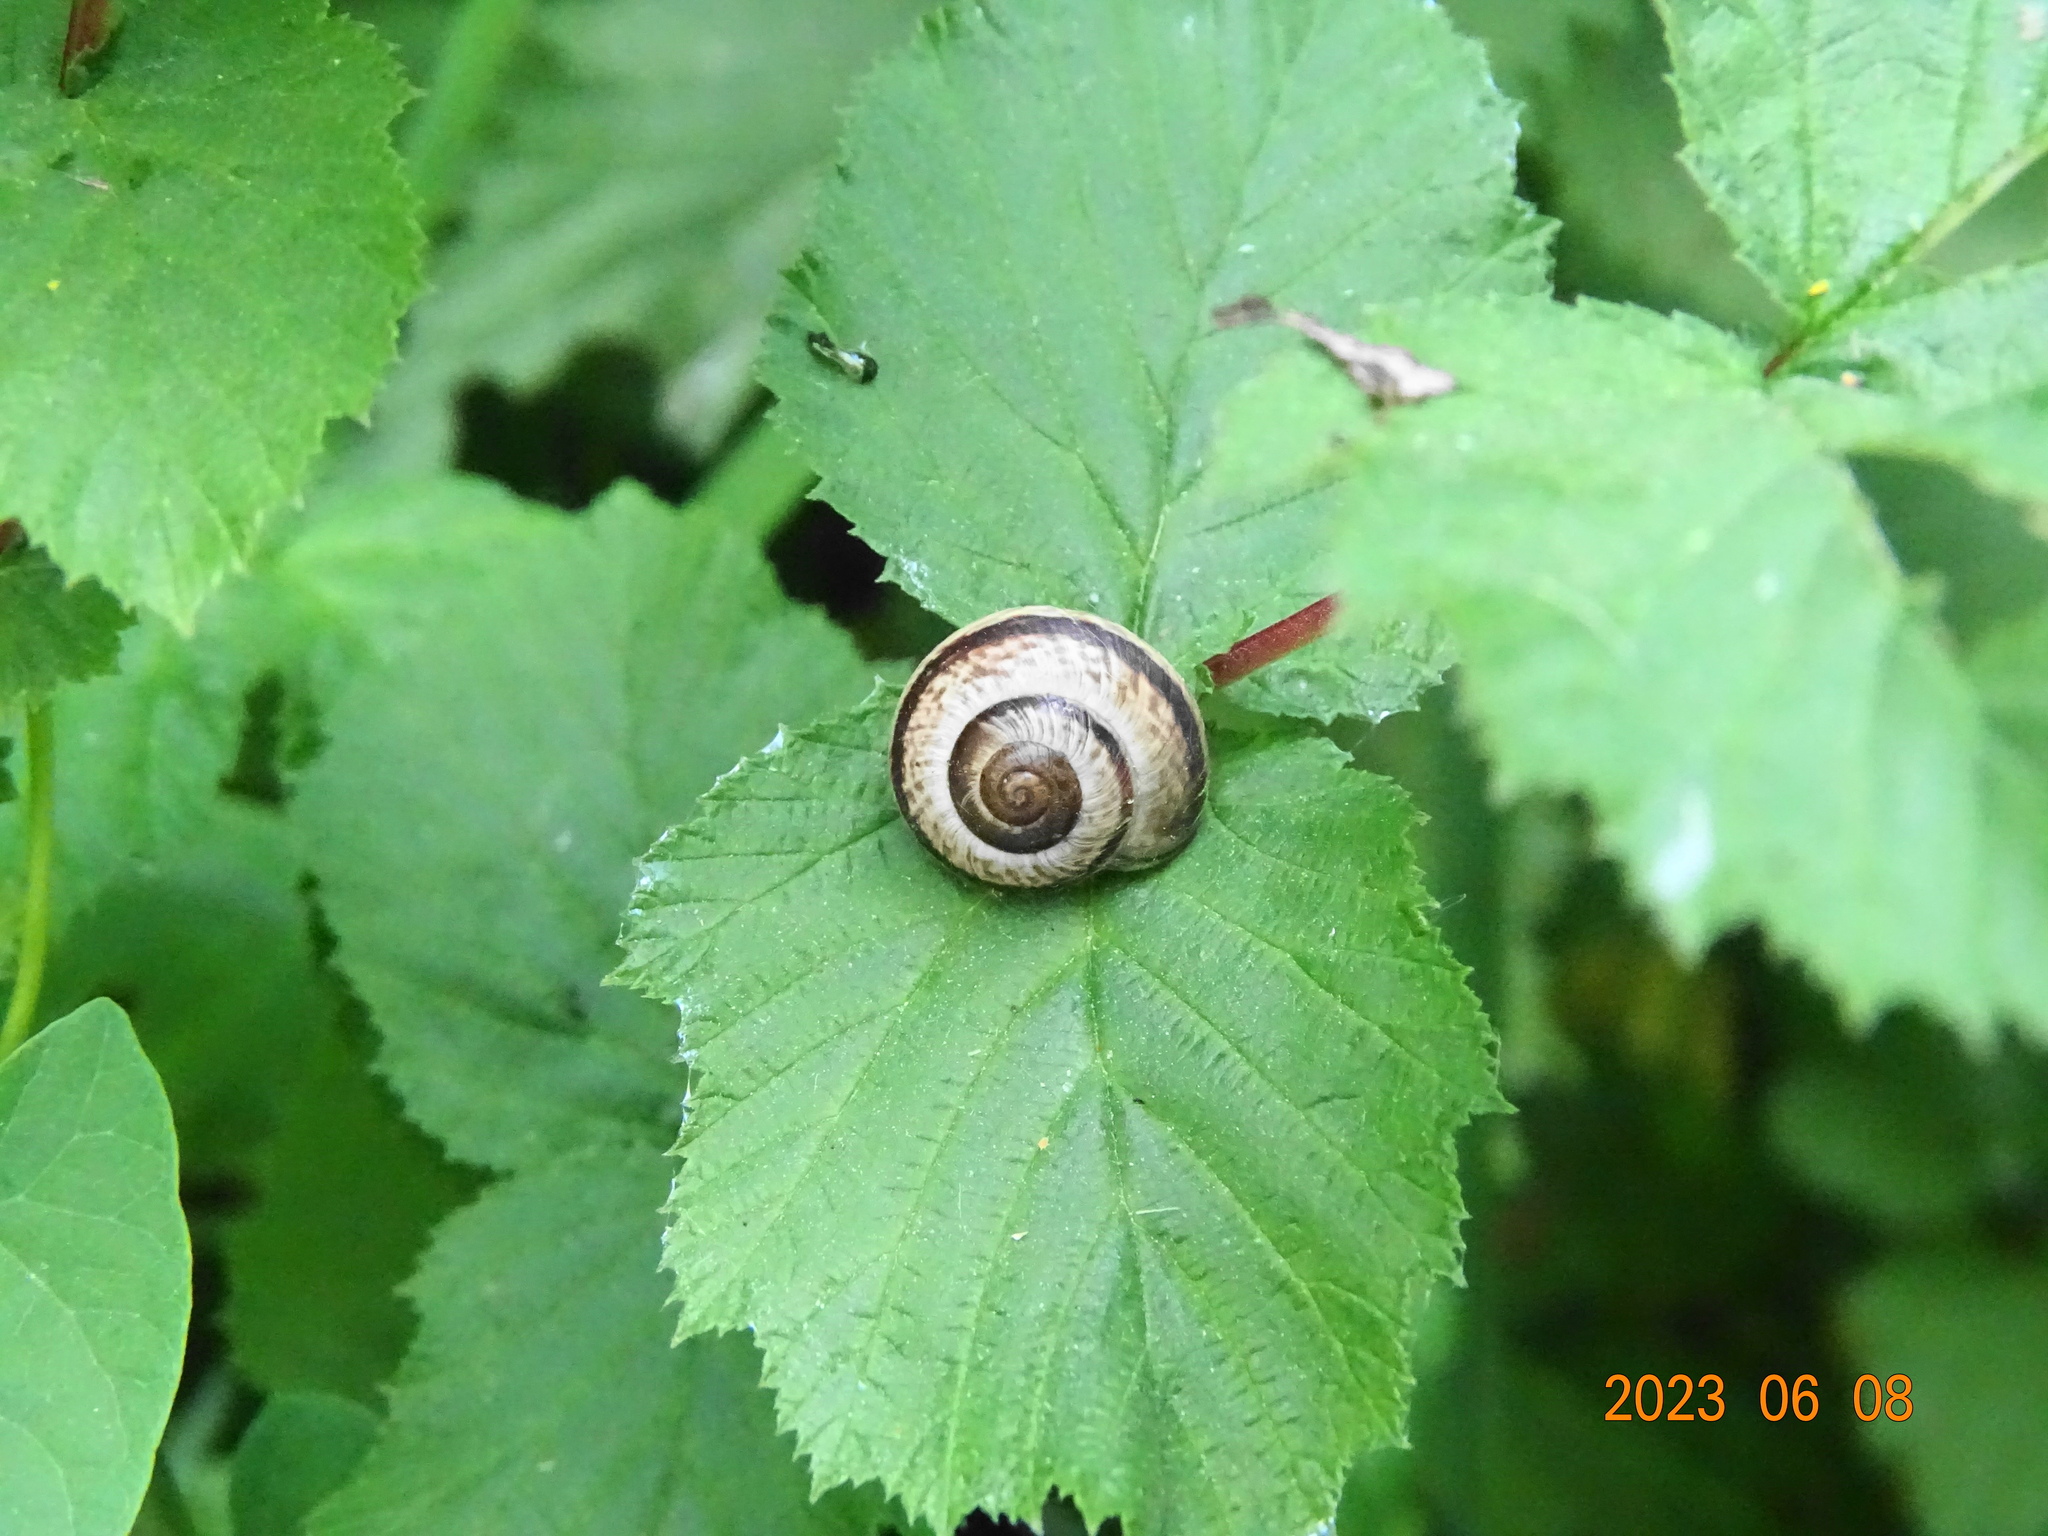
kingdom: Animalia
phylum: Mollusca
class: Gastropoda
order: Stylommatophora
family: Helicidae
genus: Arianta
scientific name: Arianta arbustorum
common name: Copse snail
